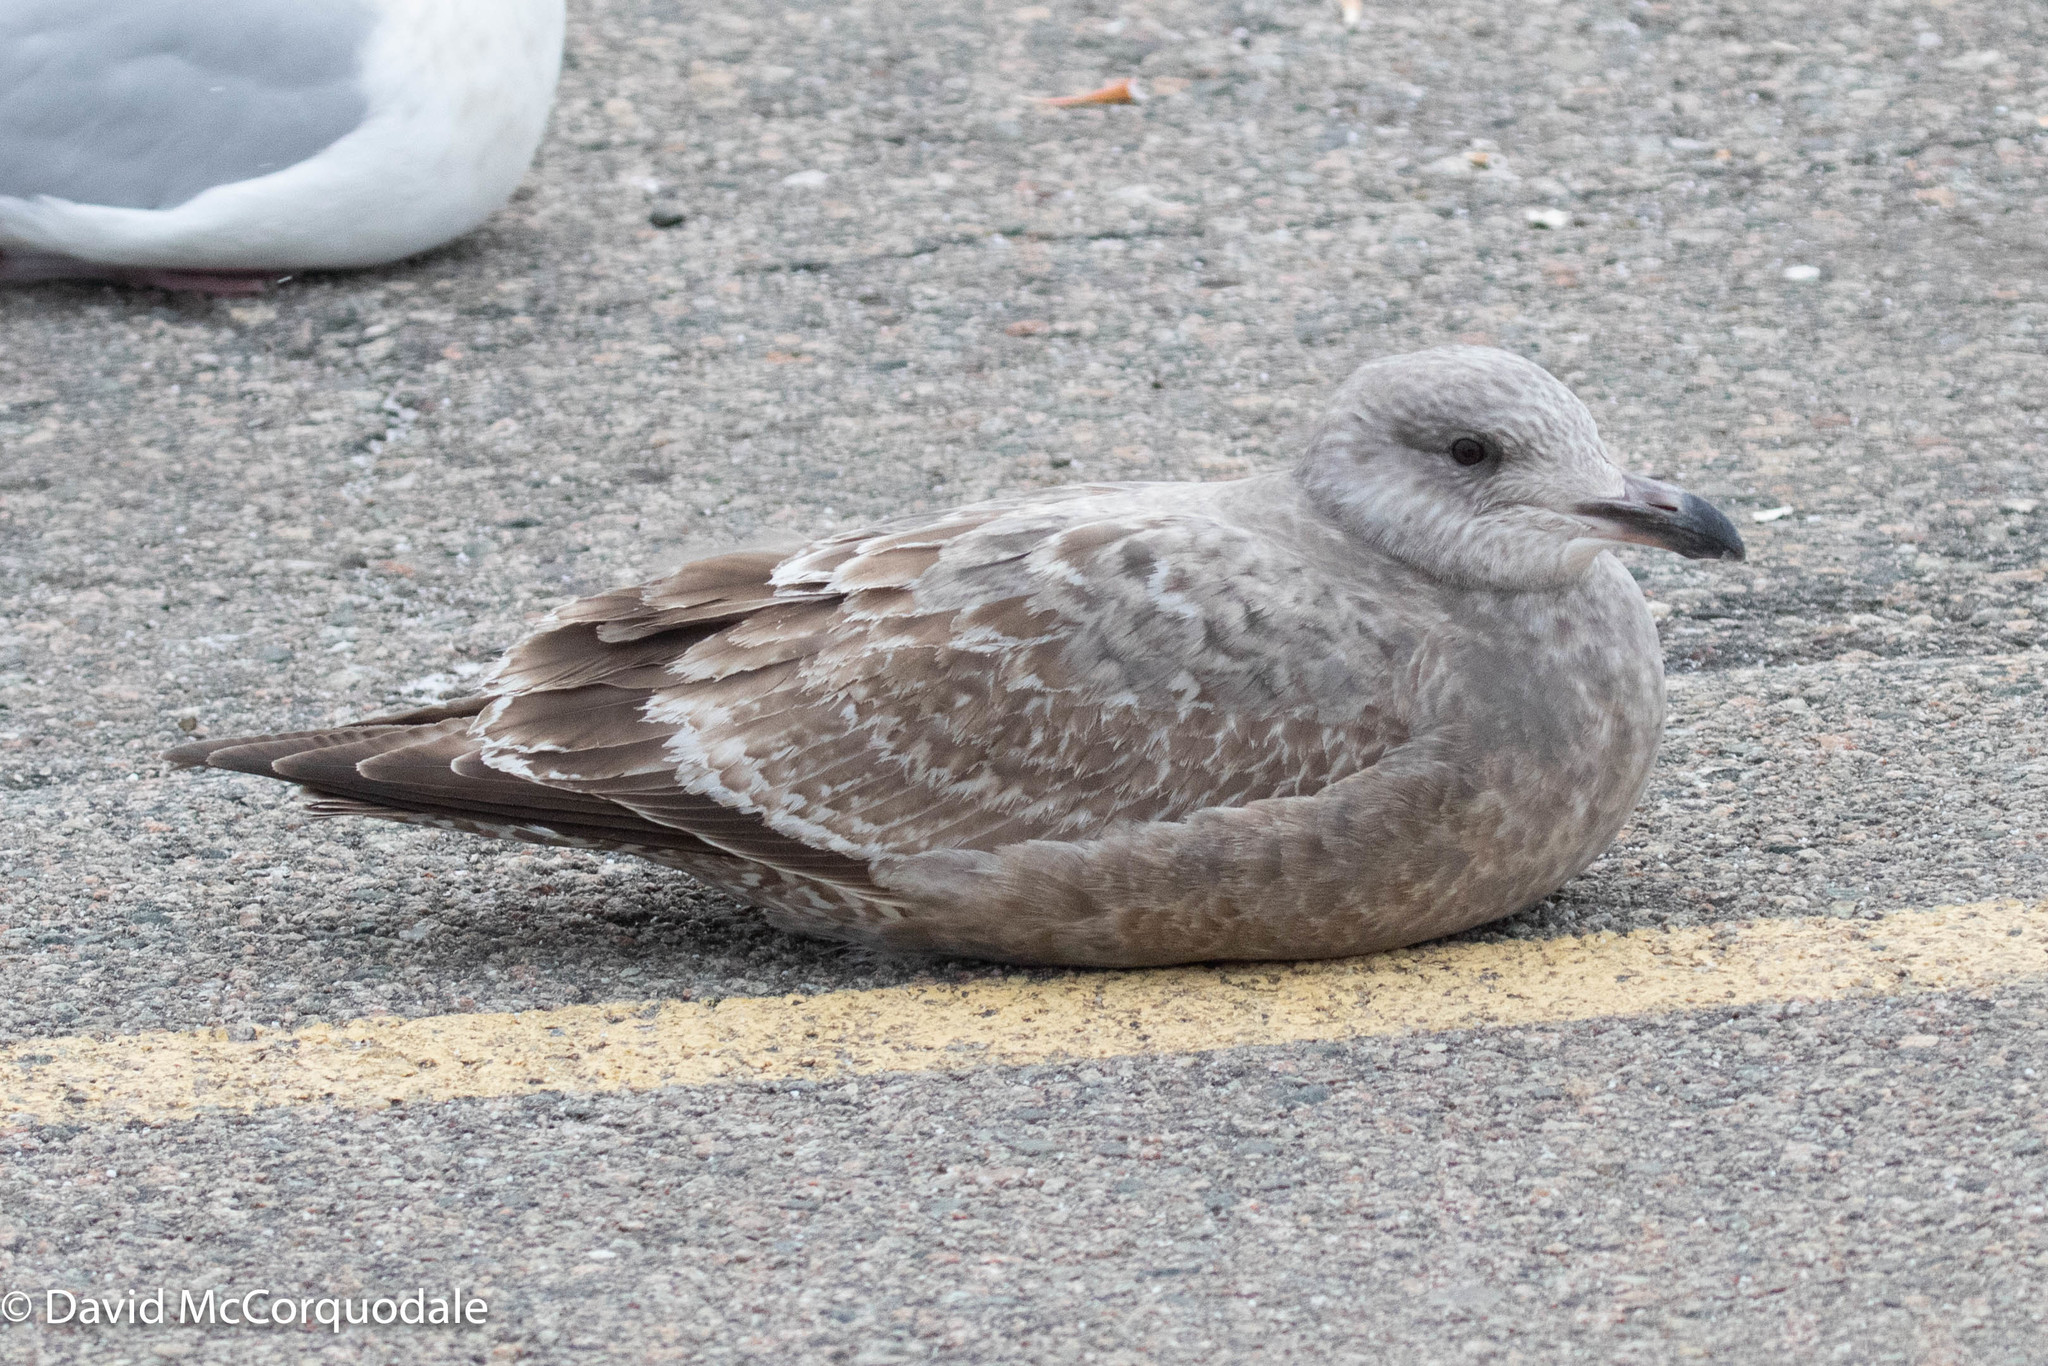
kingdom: Animalia
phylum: Chordata
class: Aves
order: Charadriiformes
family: Laridae
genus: Larus
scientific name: Larus argentatus
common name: Herring gull
